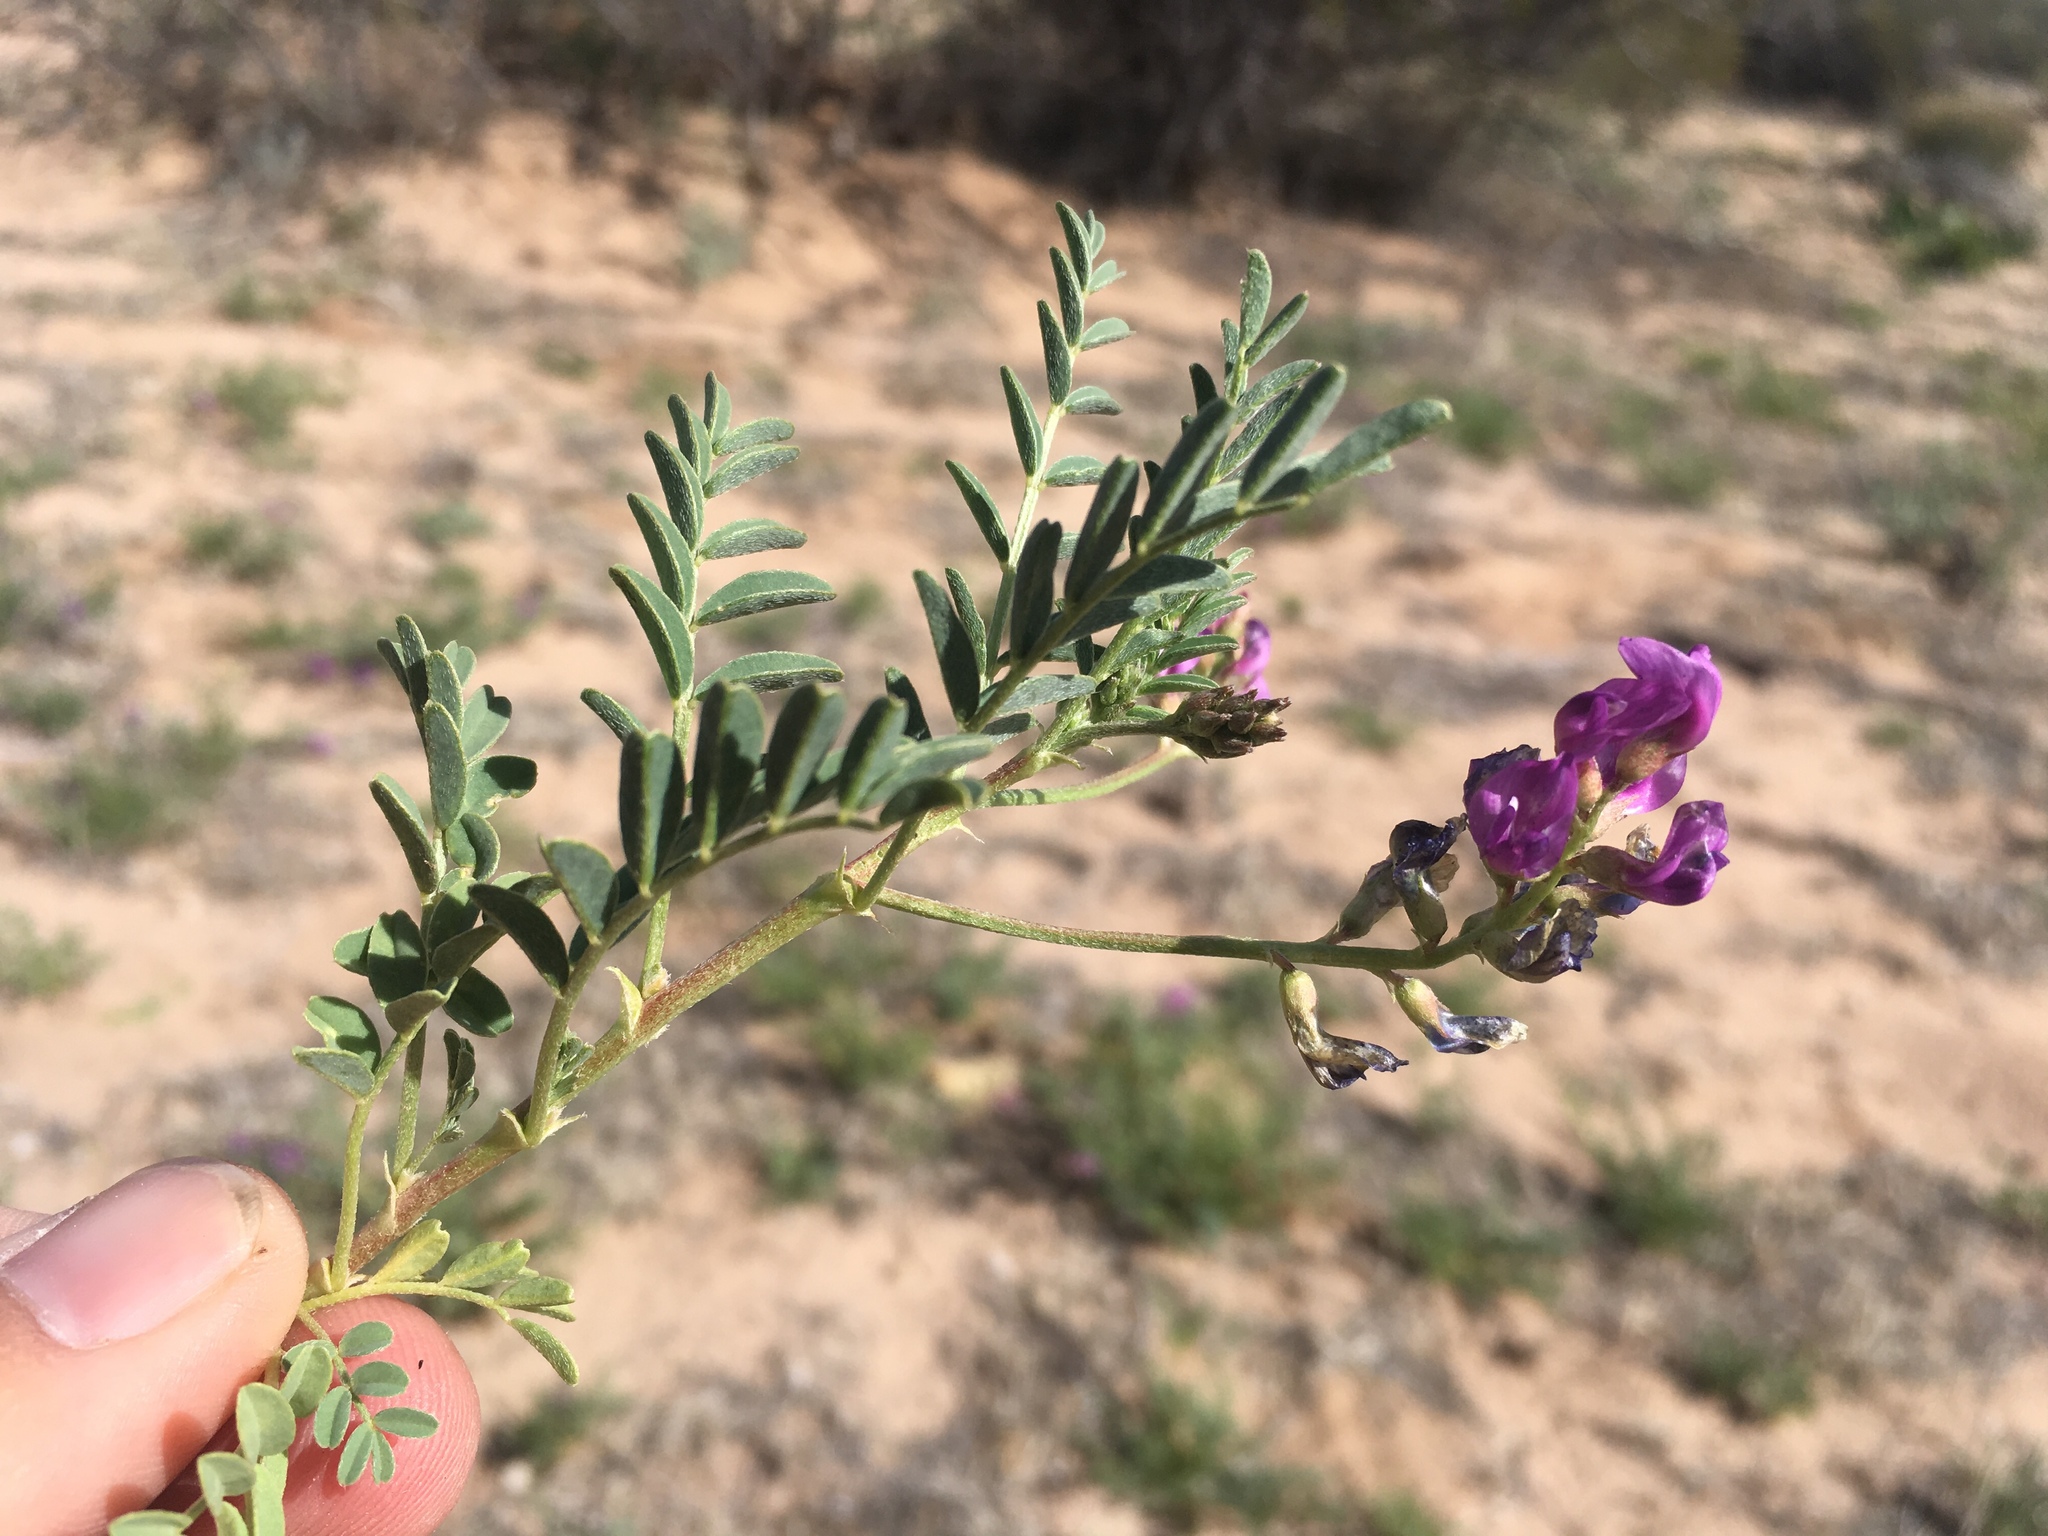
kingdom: Plantae
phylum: Tracheophyta
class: Magnoliopsida
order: Fabales
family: Fabaceae
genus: Astragalus
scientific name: Astragalus allochrous
